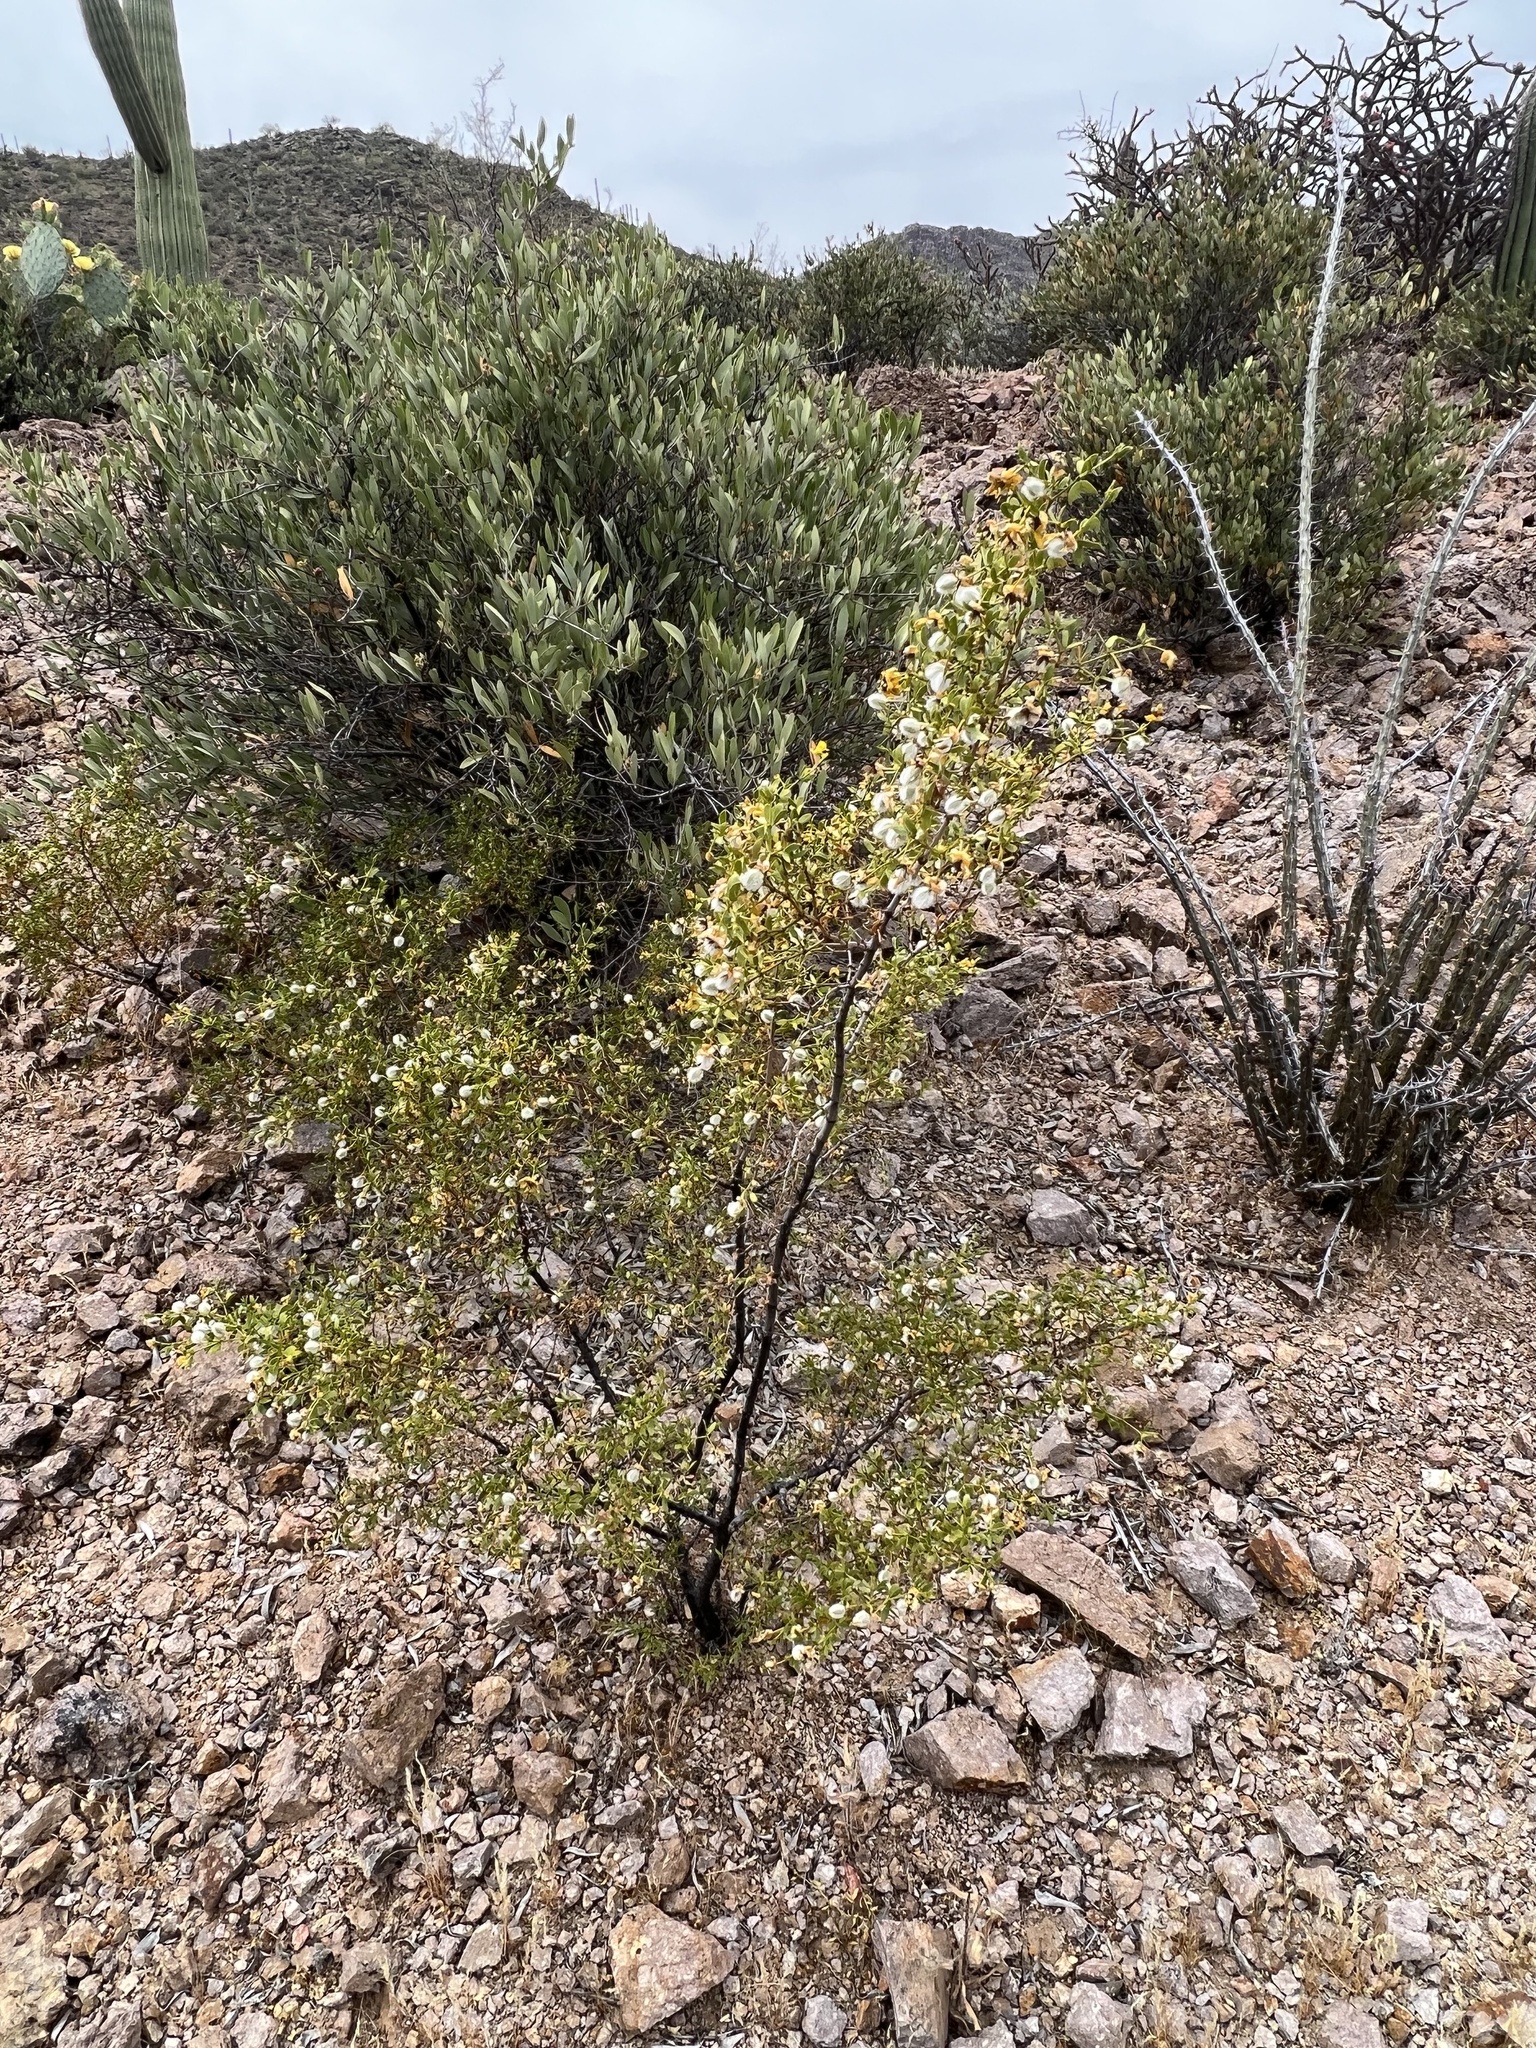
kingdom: Plantae
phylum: Tracheophyta
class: Magnoliopsida
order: Zygophyllales
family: Zygophyllaceae
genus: Larrea
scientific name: Larrea tridentata
